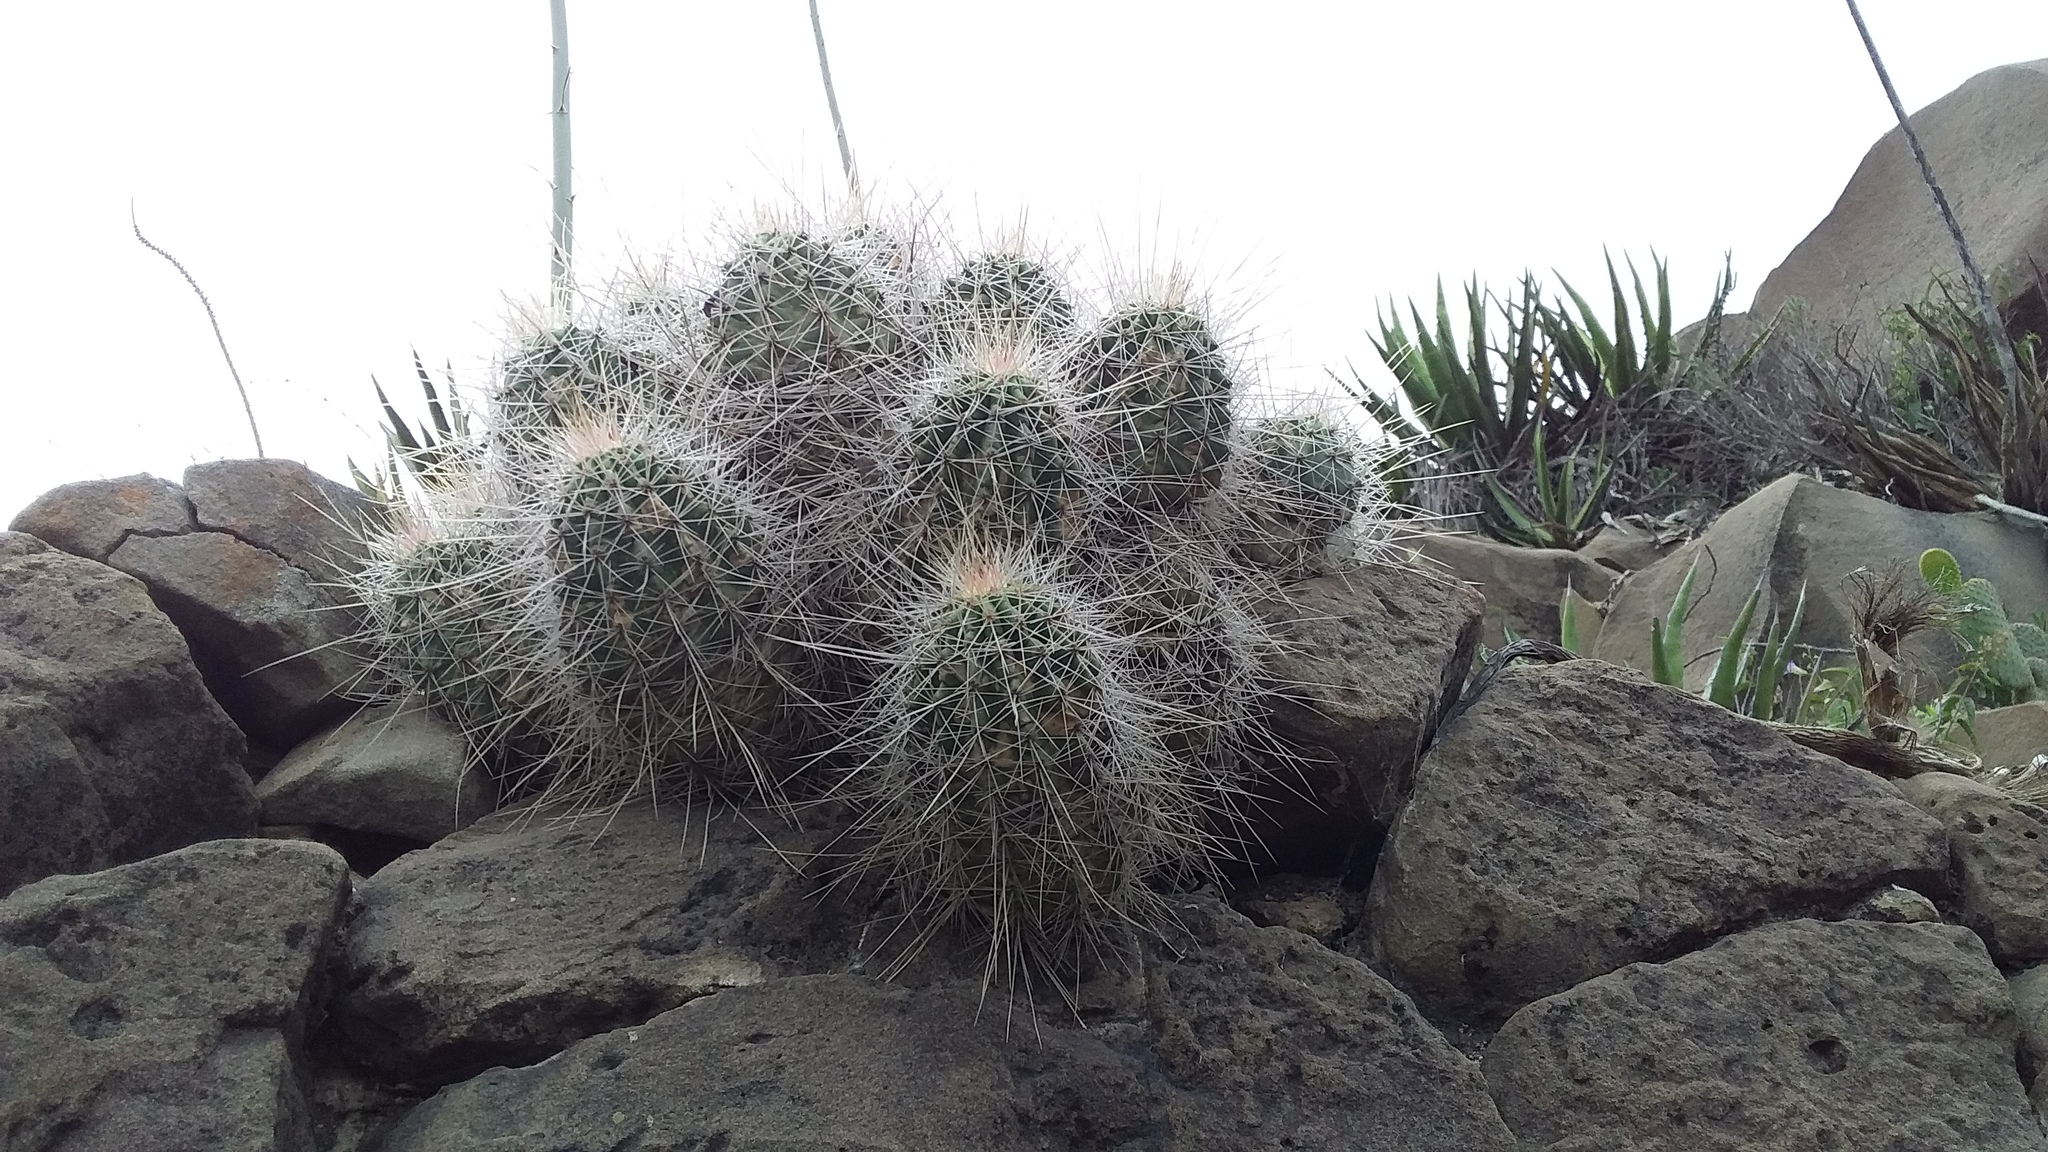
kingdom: Plantae
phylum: Tracheophyta
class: Magnoliopsida
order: Caryophyllales
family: Cactaceae
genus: Echinocereus
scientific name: Echinocereus stramineus
